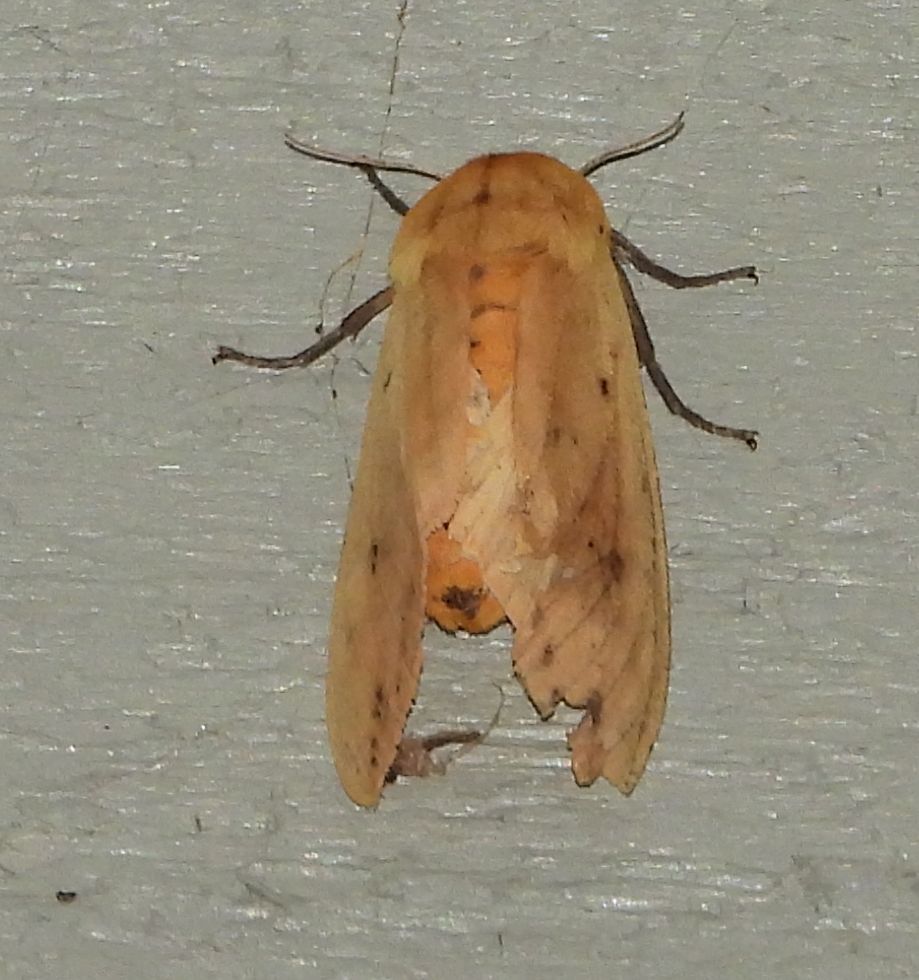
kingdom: Animalia
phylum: Arthropoda
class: Insecta
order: Lepidoptera
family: Erebidae
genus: Pyrrharctia
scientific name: Pyrrharctia isabella
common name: Isabella tiger moth
